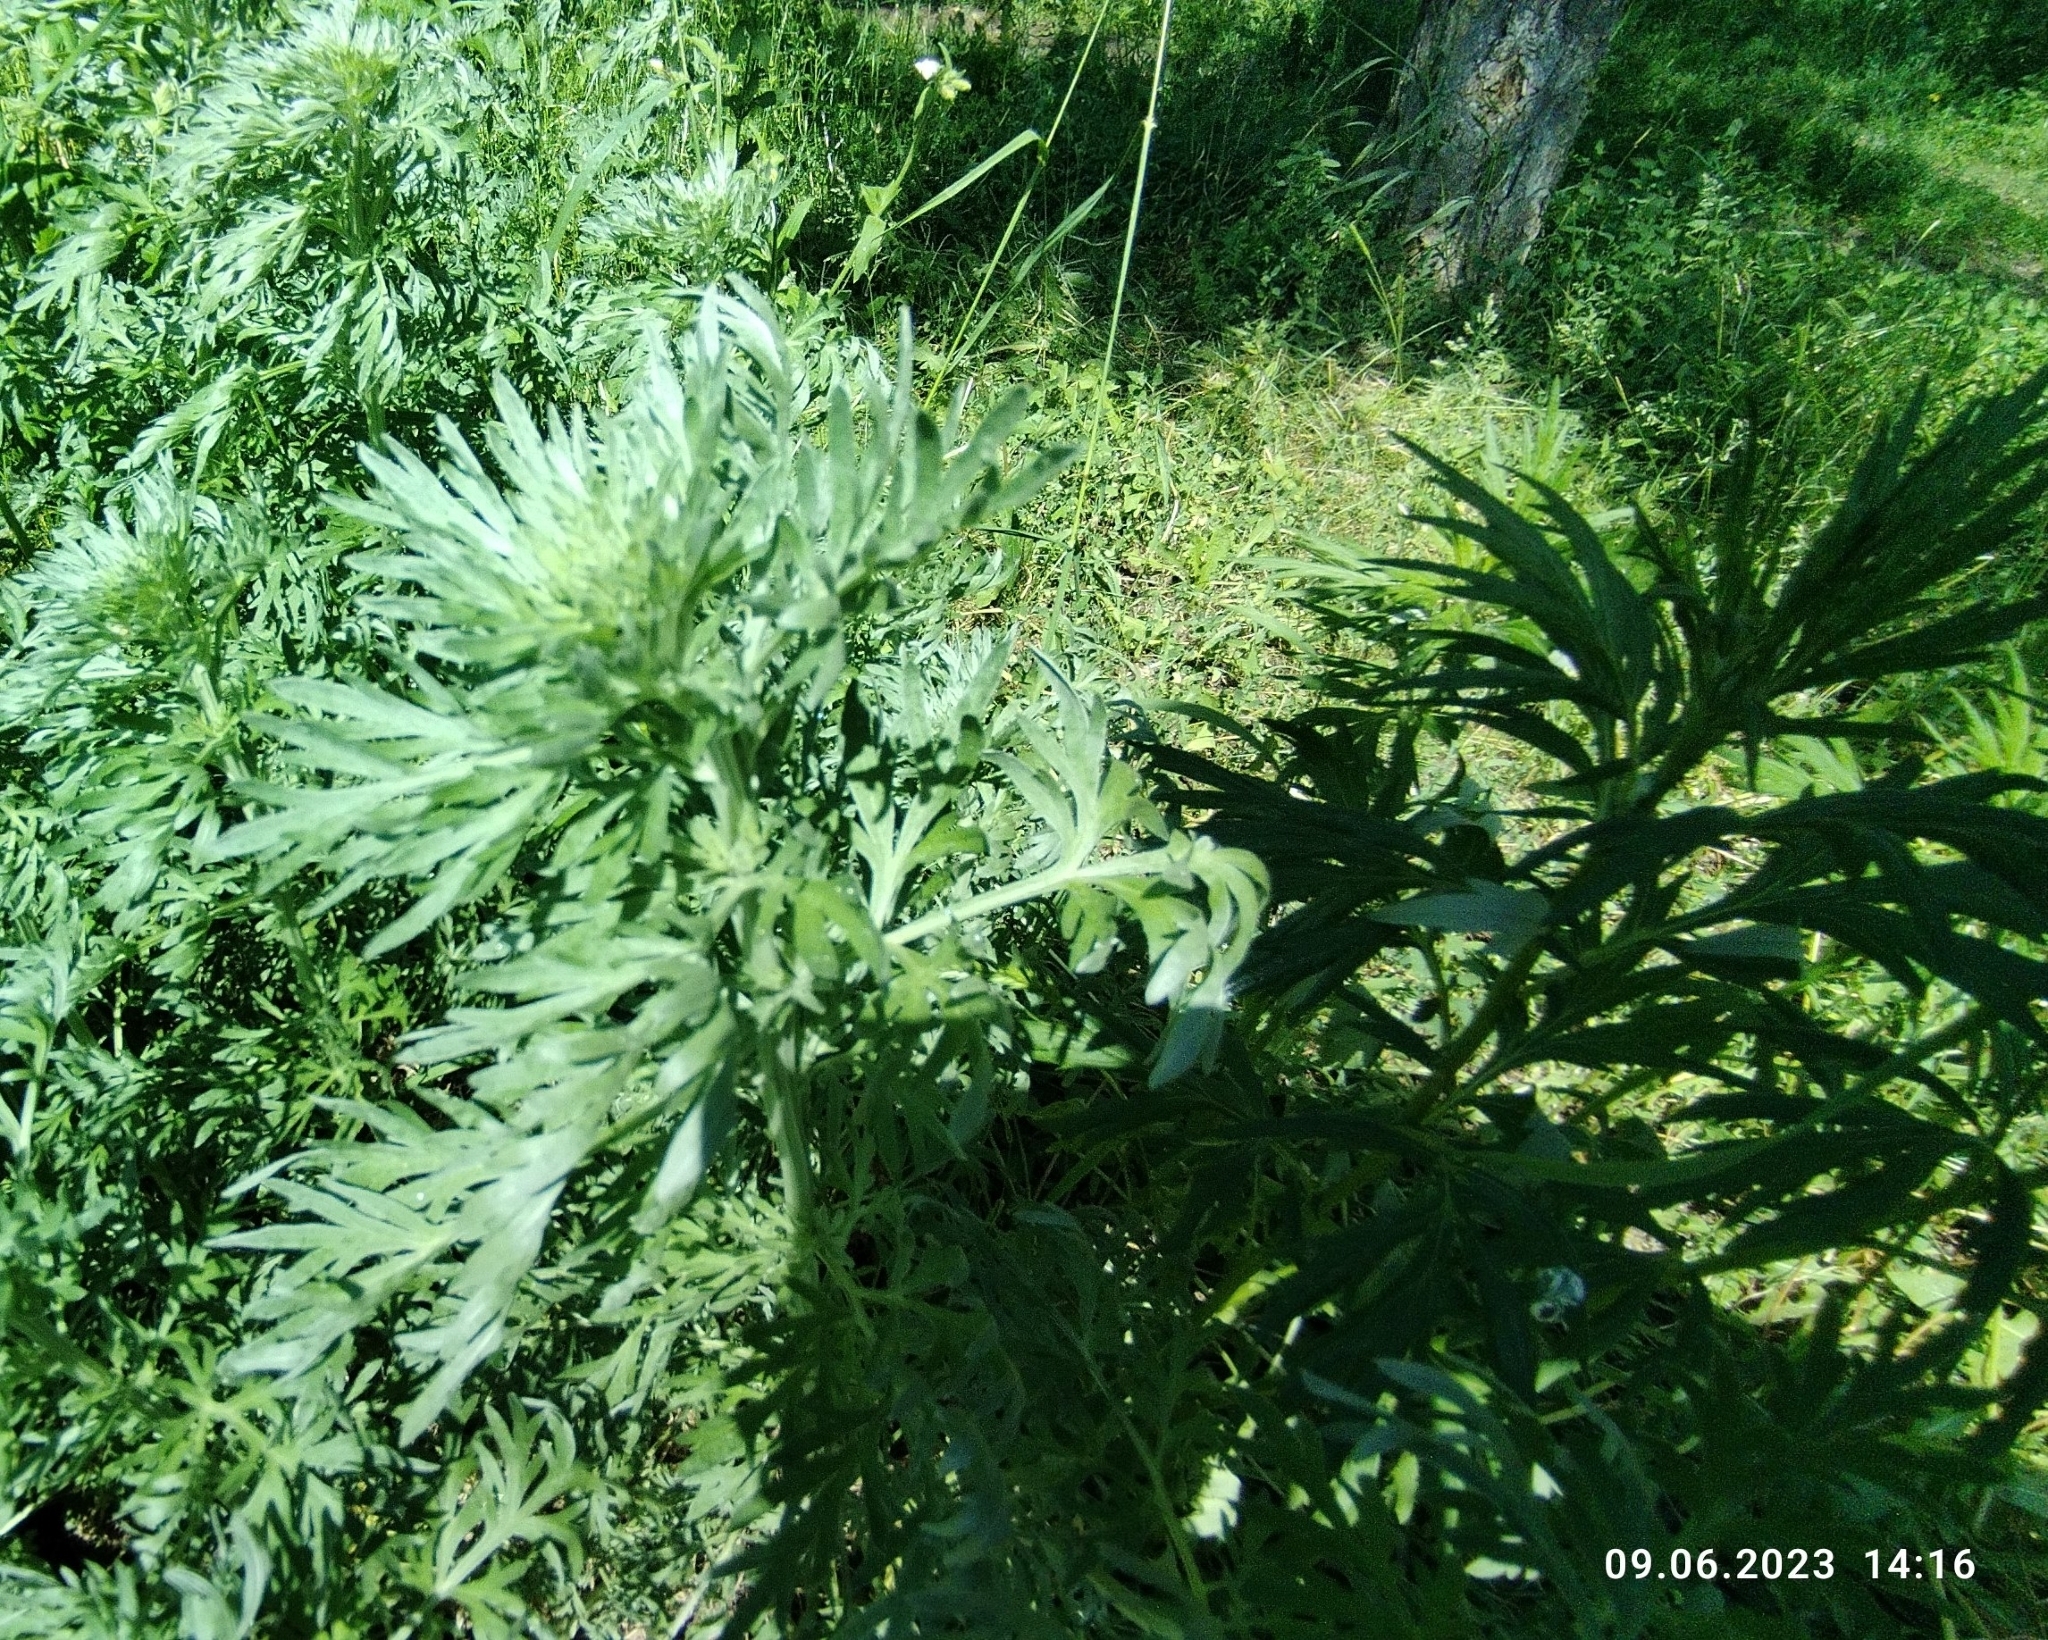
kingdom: Plantae
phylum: Tracheophyta
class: Magnoliopsida
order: Asterales
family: Asteraceae
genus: Artemisia
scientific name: Artemisia absinthium
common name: Wormwood
